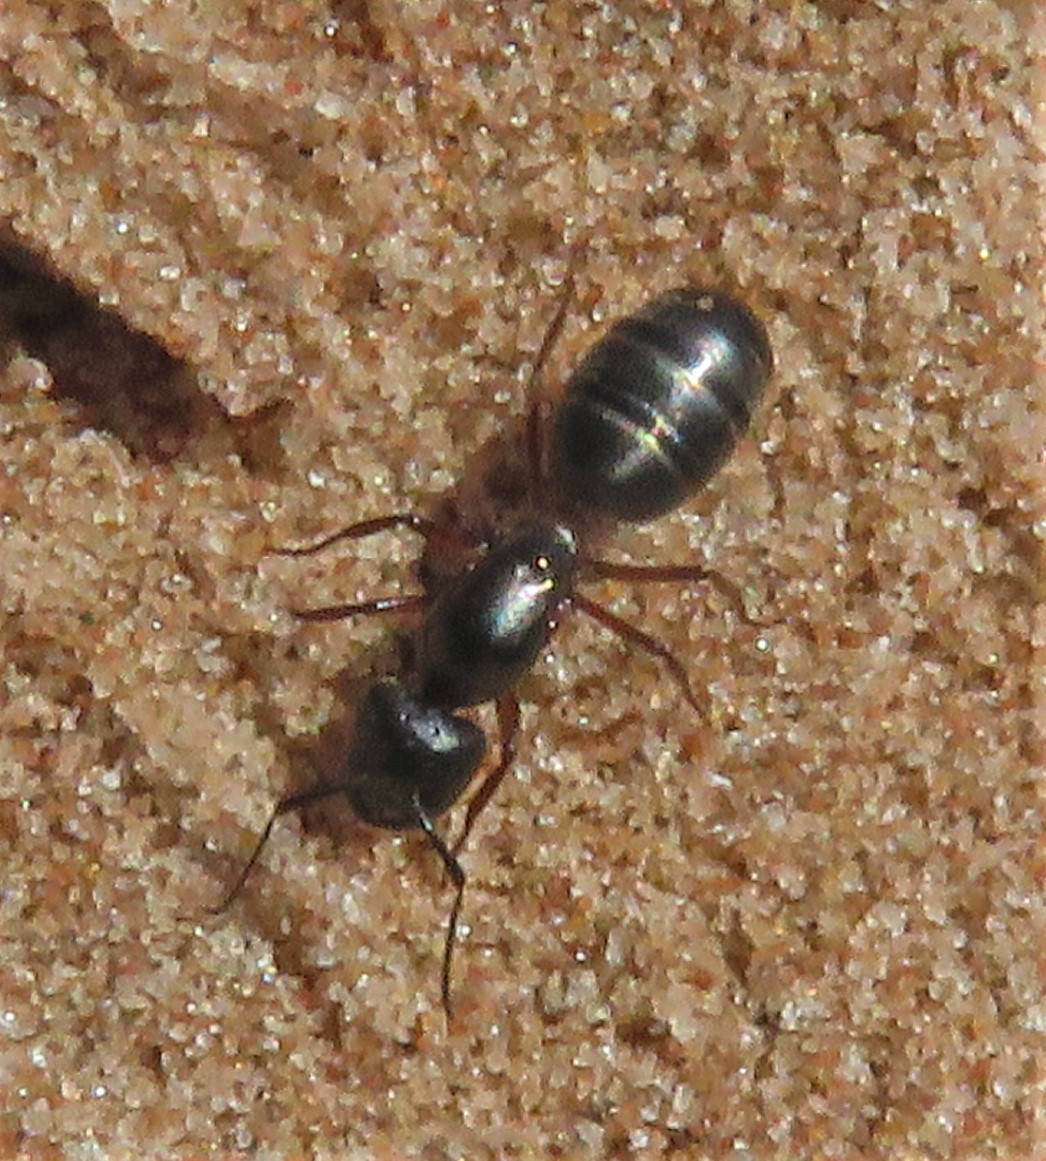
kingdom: Animalia
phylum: Arthropoda
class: Insecta
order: Hymenoptera
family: Formicidae
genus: Camponotus
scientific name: Camponotus herculeanus
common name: Hercules ant
